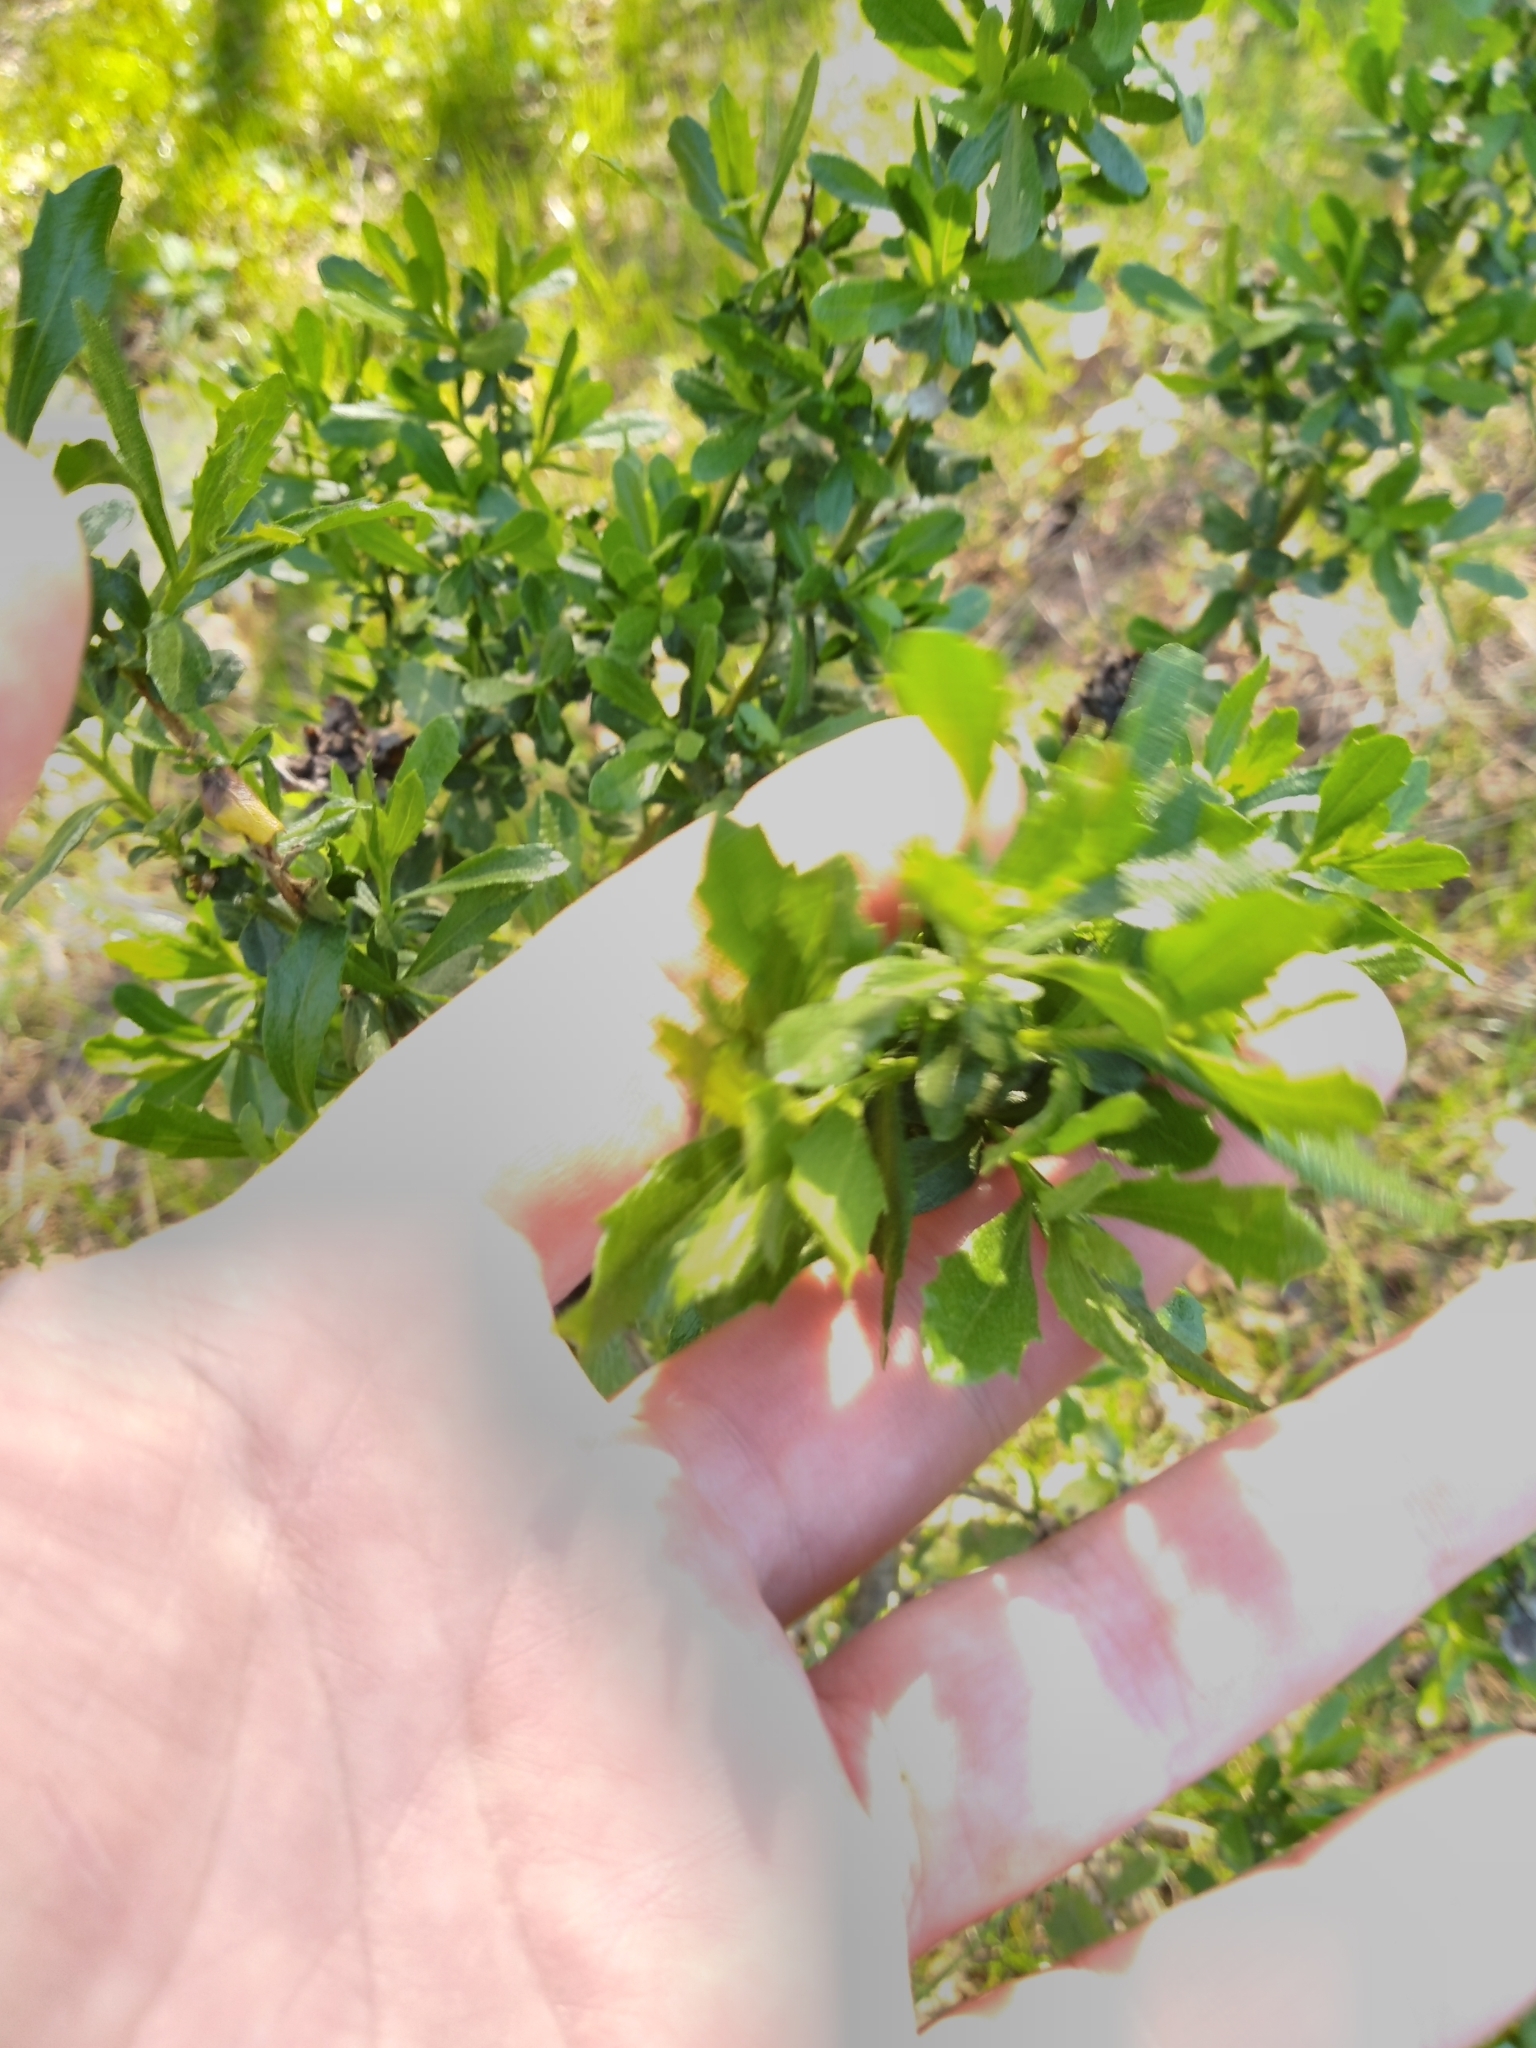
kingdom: Plantae
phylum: Tracheophyta
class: Magnoliopsida
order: Asterales
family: Asteraceae
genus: Baccharis
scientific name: Baccharis pilularis
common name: Coyotebrush
